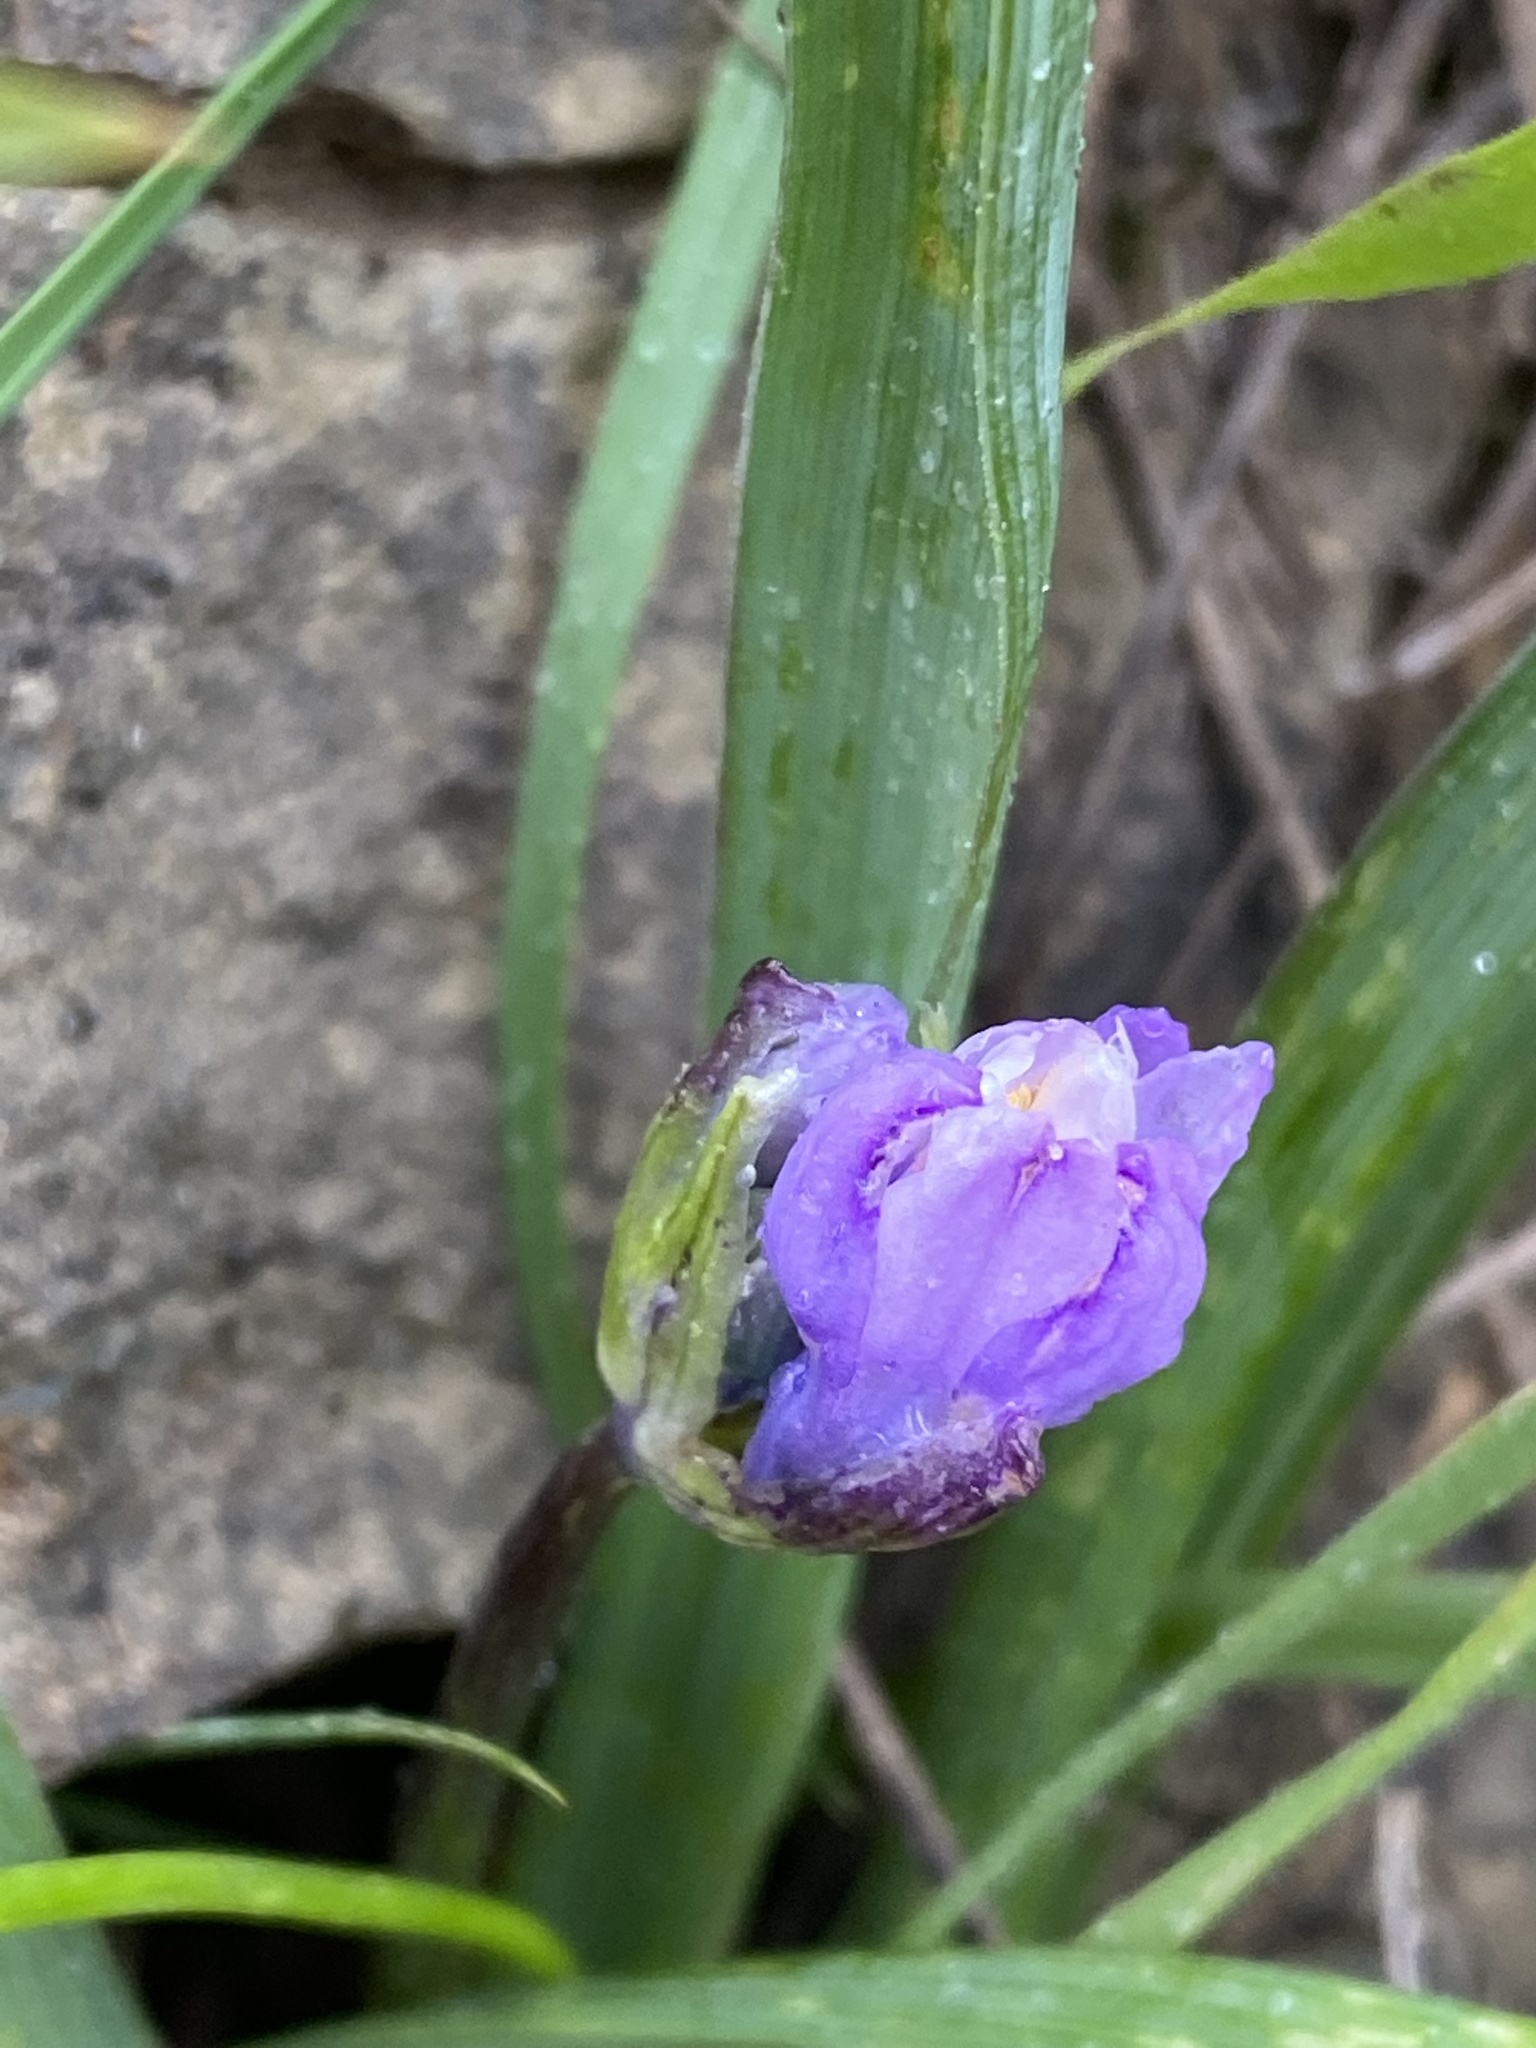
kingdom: Plantae
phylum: Tracheophyta
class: Liliopsida
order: Asparagales
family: Asparagaceae
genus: Dipterostemon
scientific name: Dipterostemon capitatus
